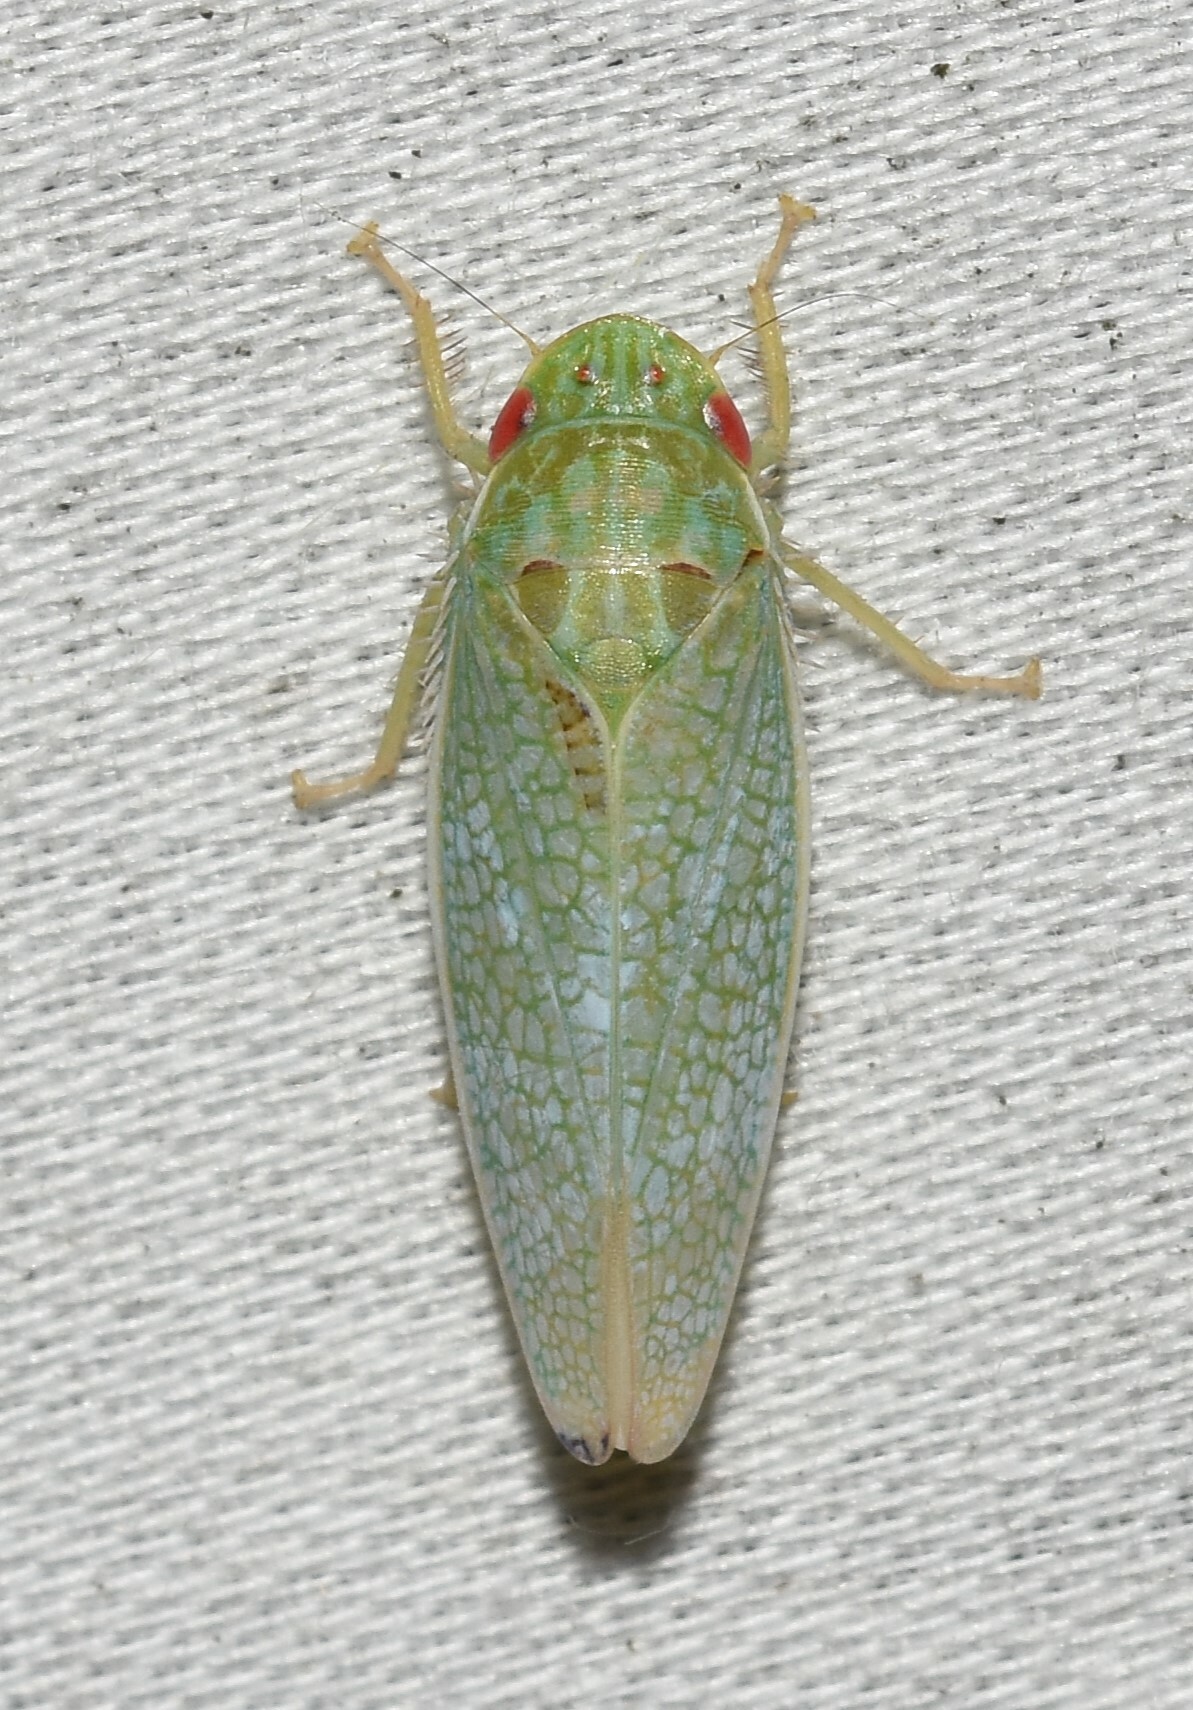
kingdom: Animalia
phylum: Arthropoda
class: Insecta
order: Hemiptera
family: Cicadellidae
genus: Gyponana
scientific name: Gyponana procera
